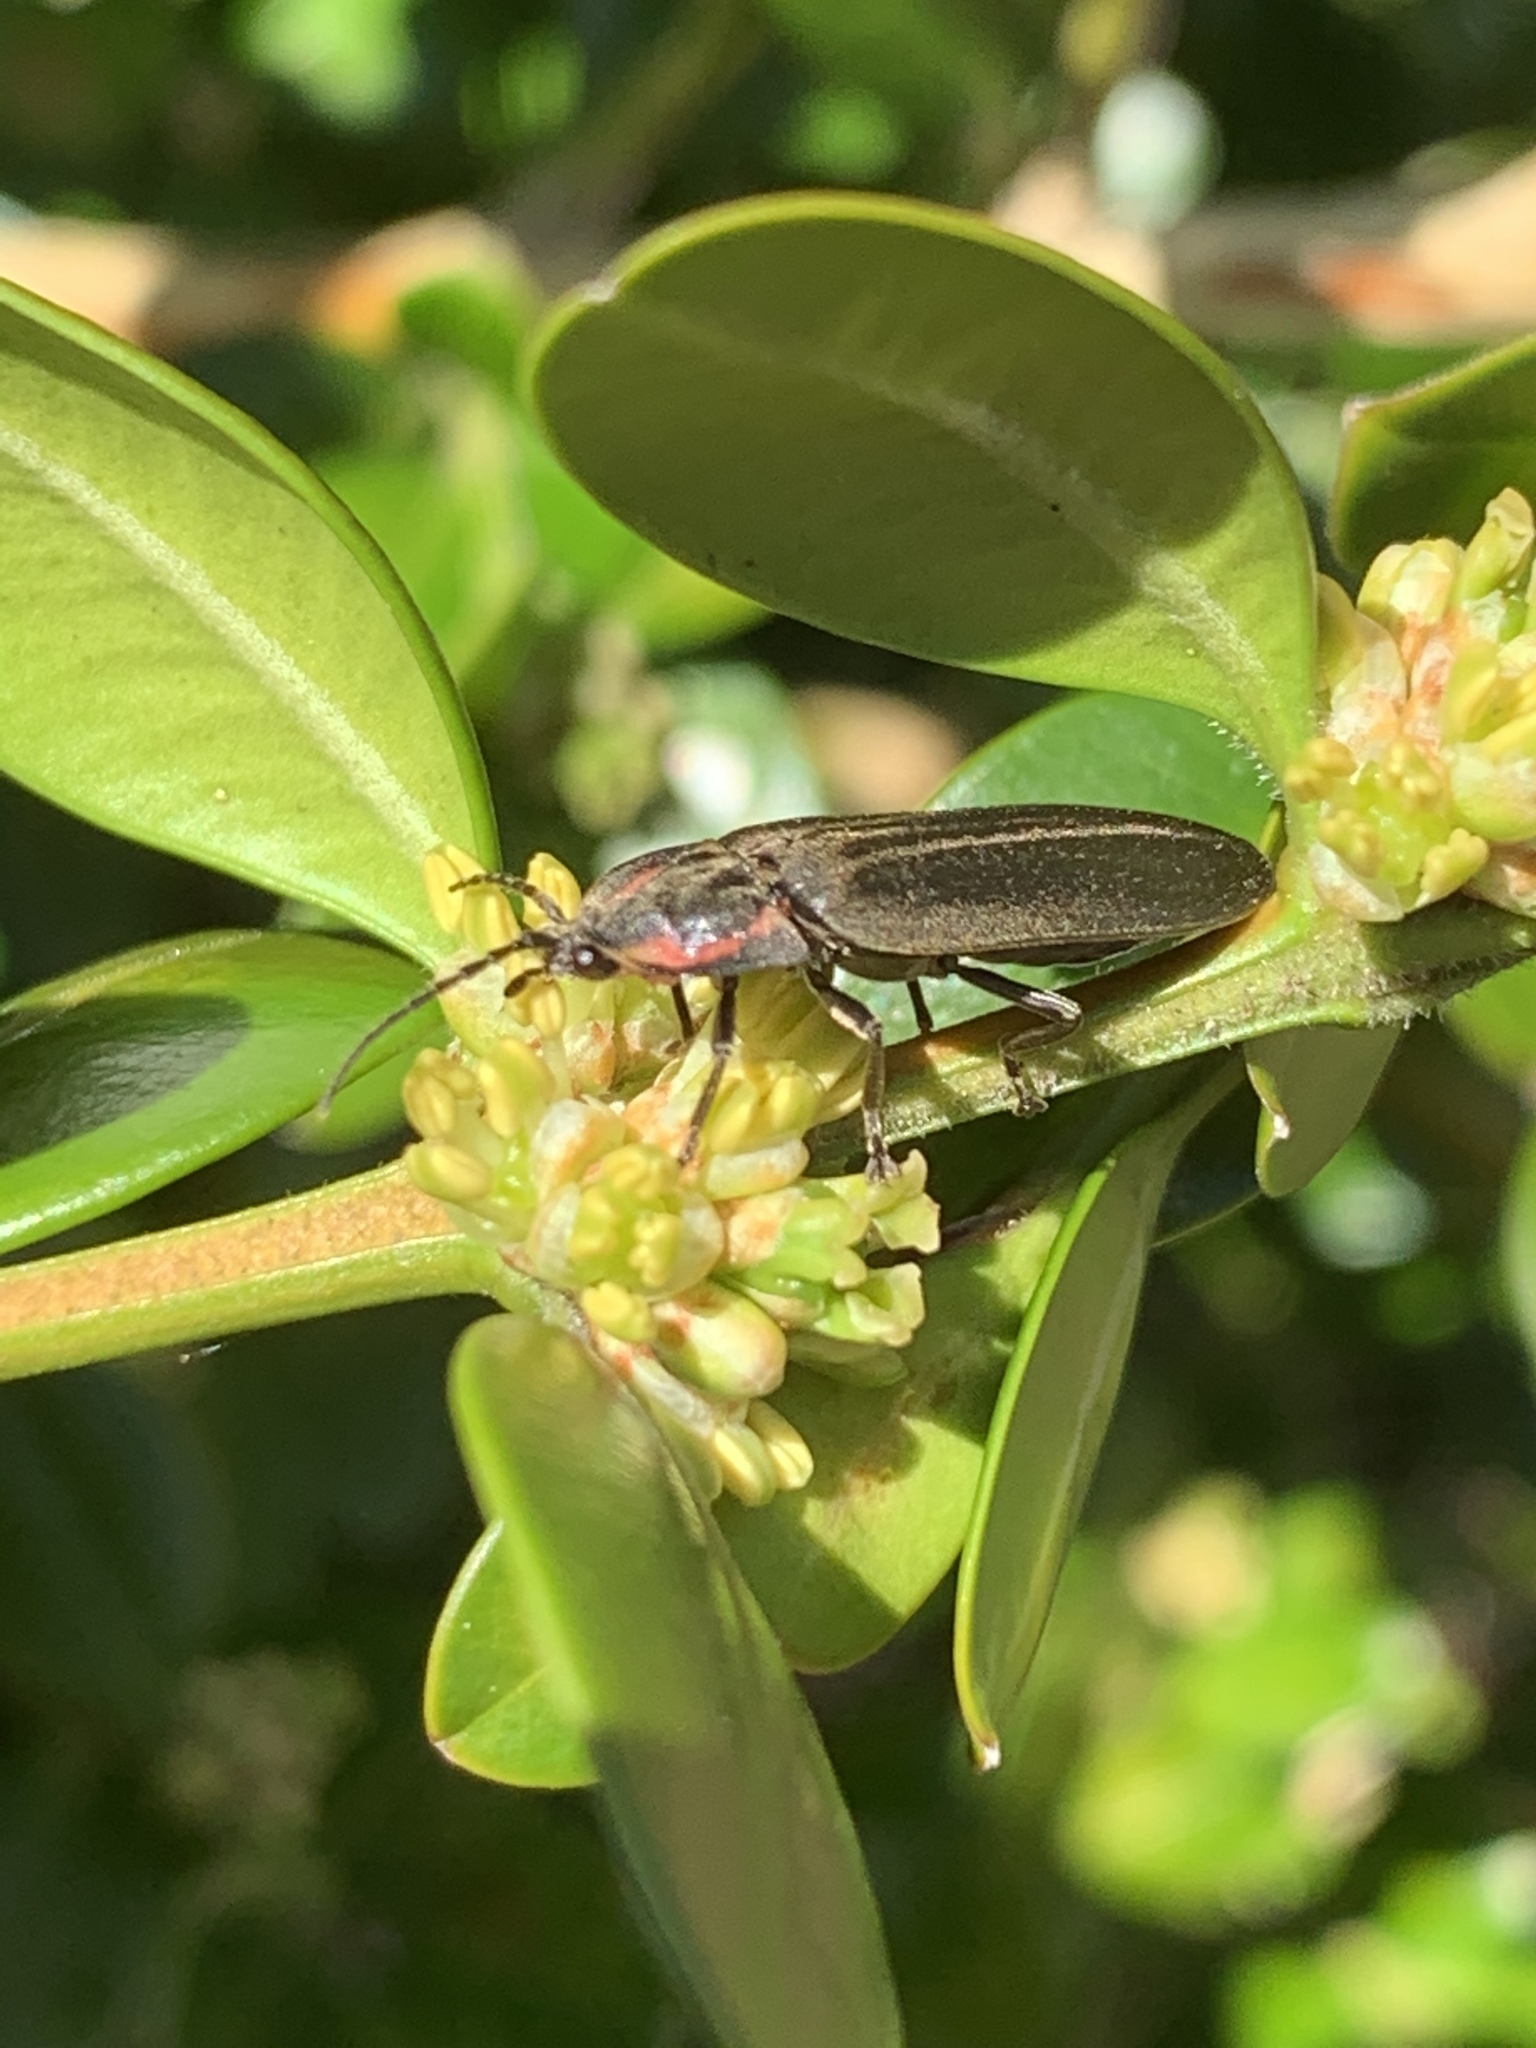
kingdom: Animalia
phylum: Arthropoda
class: Insecta
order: Coleoptera
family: Lampyridae
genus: Photinus
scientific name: Photinus corrusca
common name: Winter firefly
